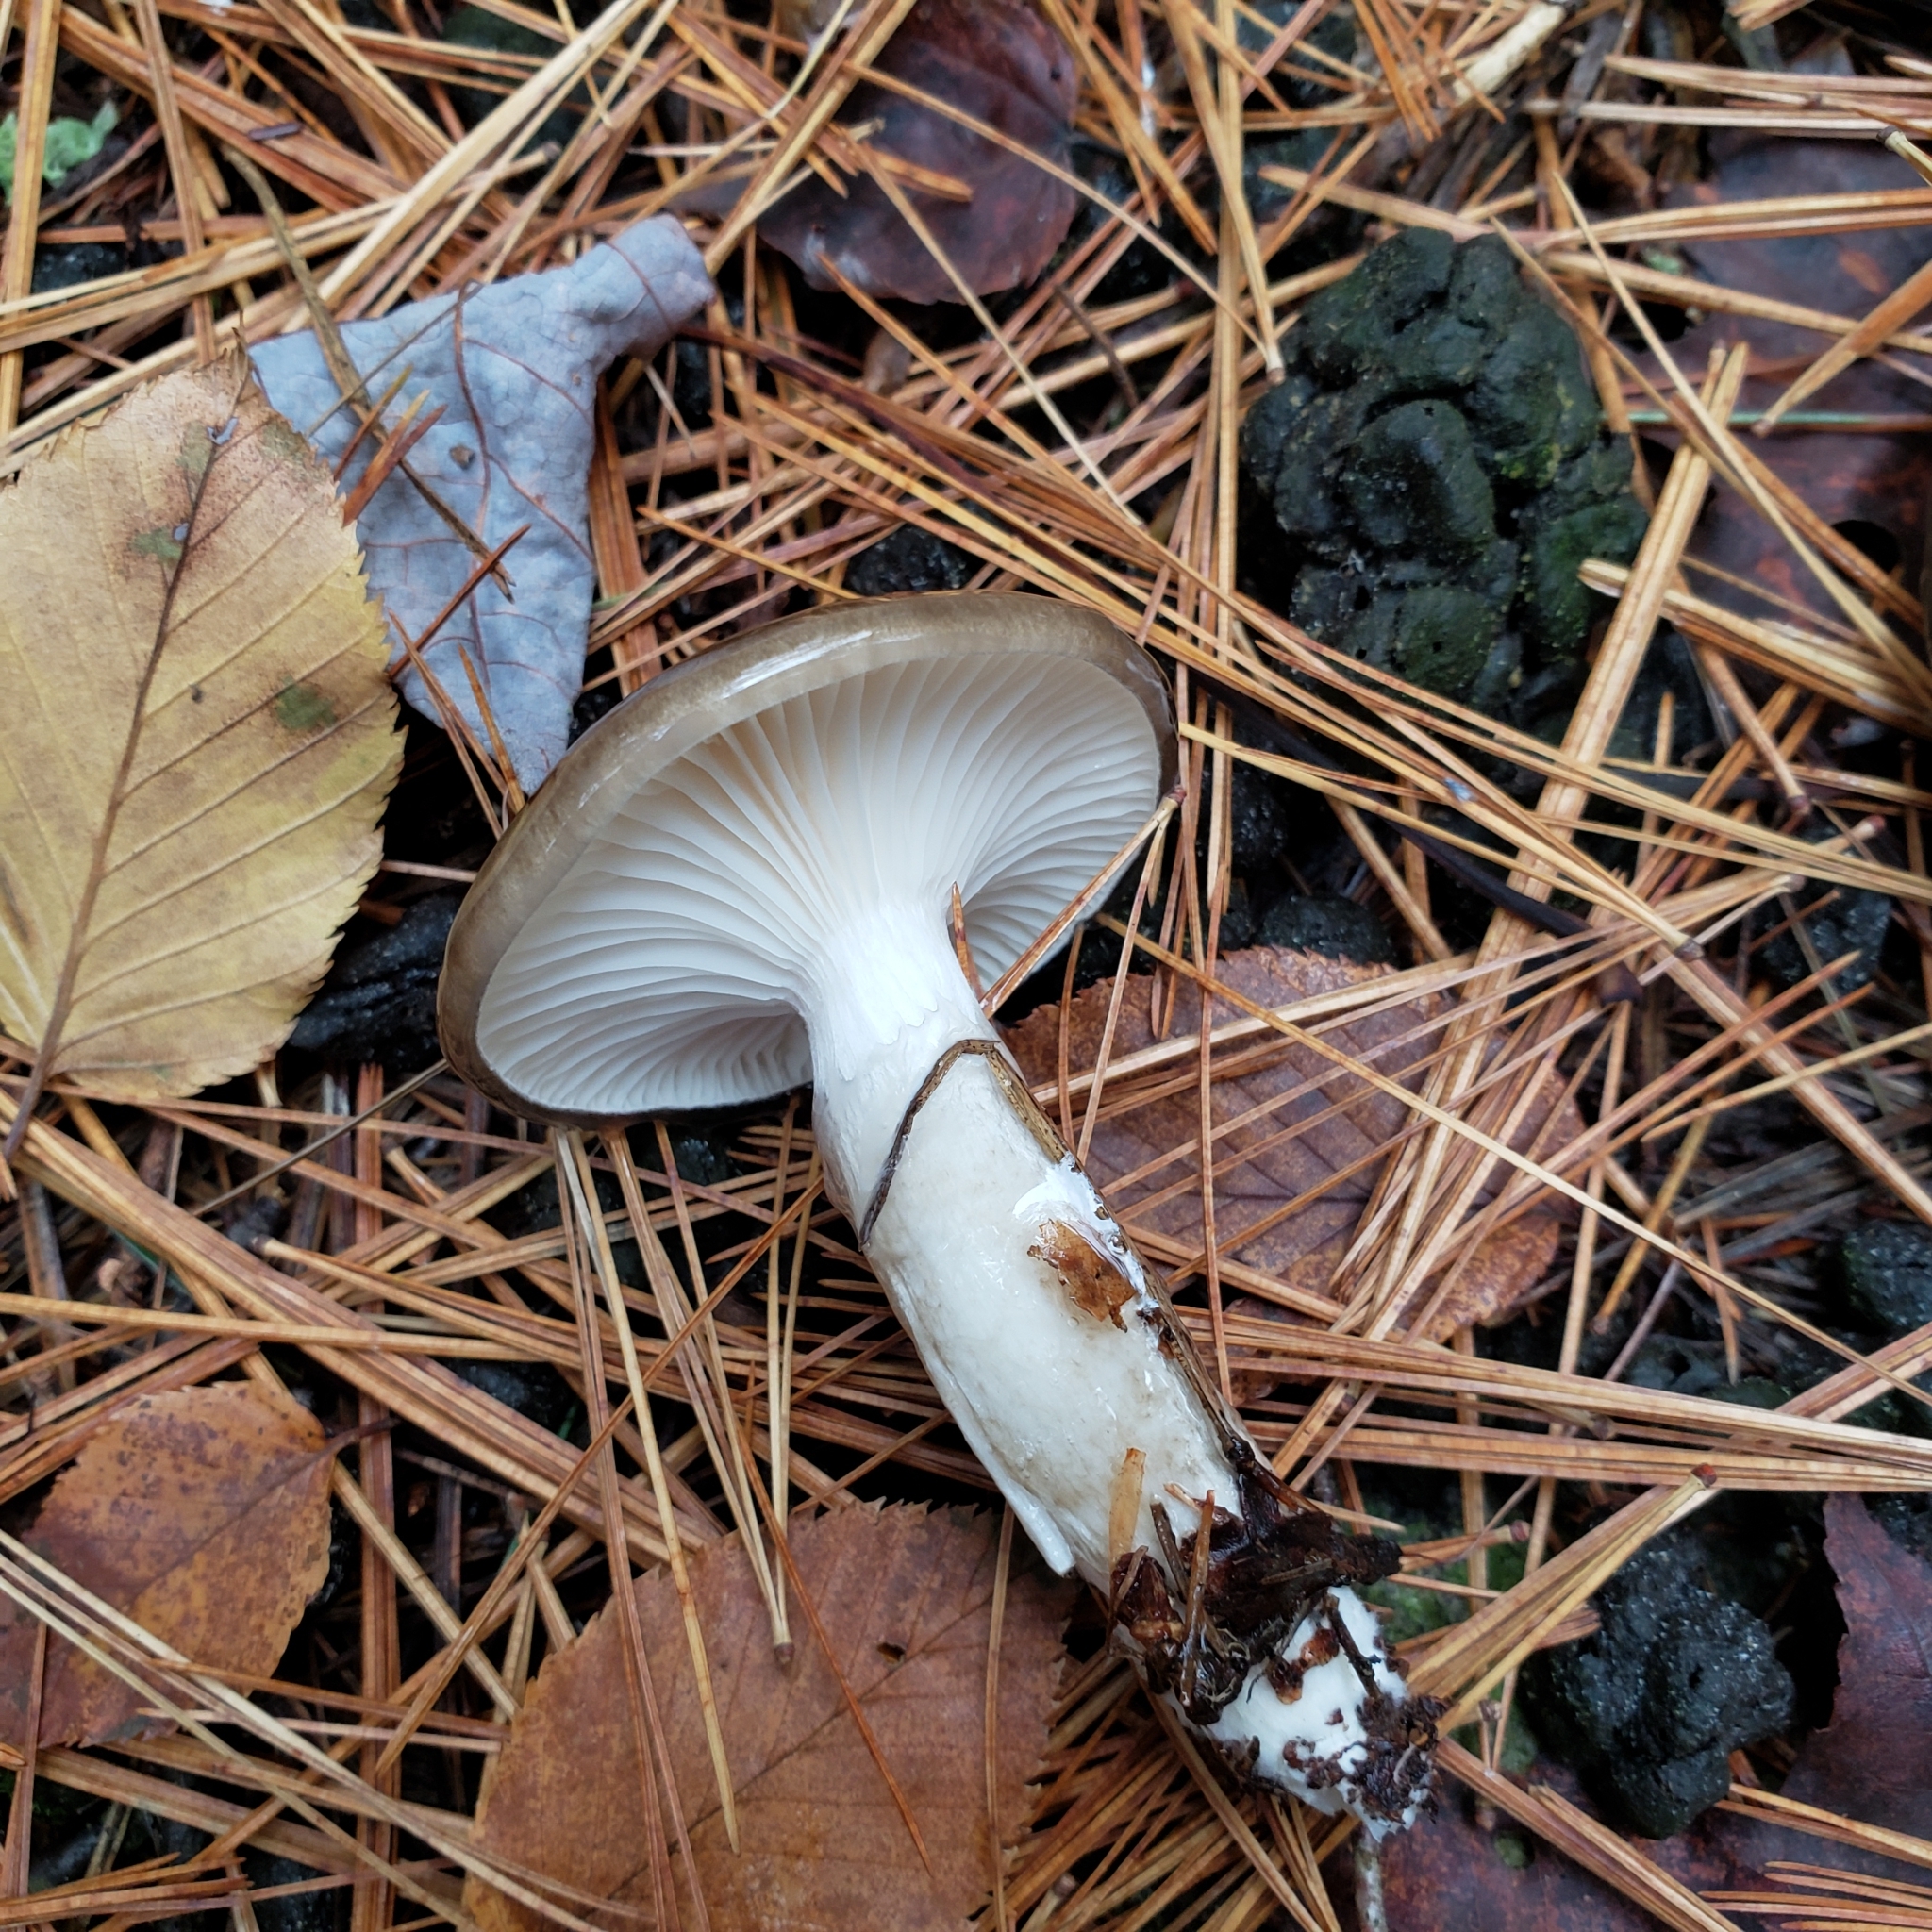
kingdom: Fungi
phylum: Basidiomycota
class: Agaricomycetes
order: Agaricales
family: Hygrophoraceae
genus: Hygrophorus
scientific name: Hygrophorus fuligineus
